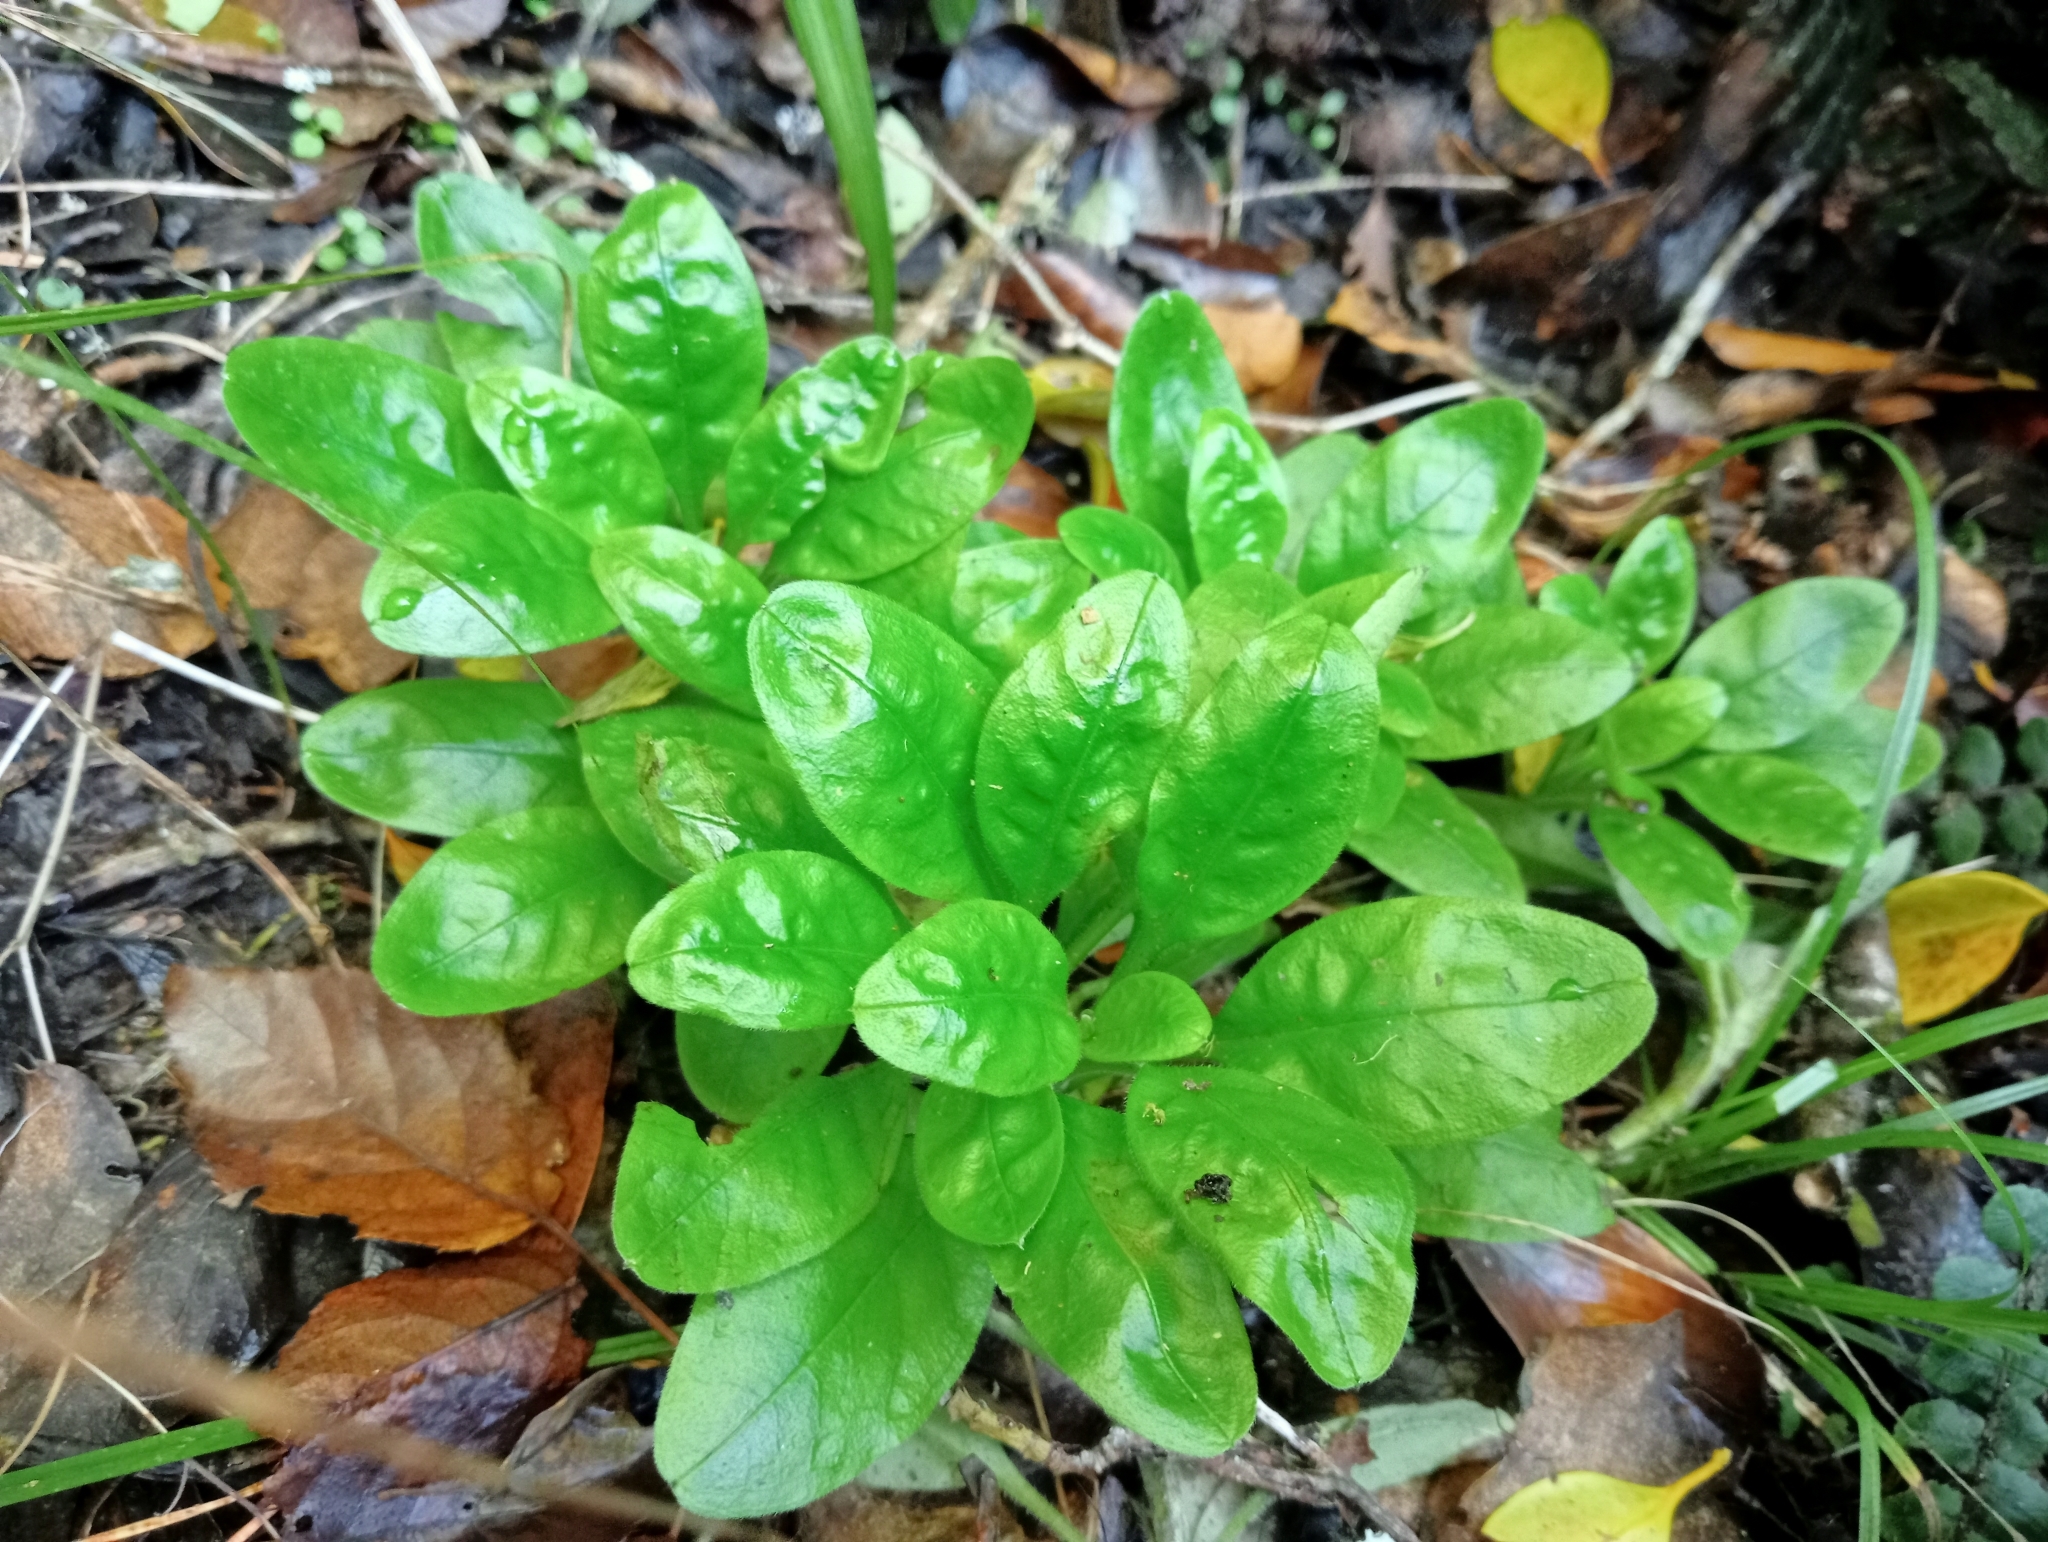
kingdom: Plantae
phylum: Tracheophyta
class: Magnoliopsida
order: Boraginales
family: Boraginaceae
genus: Myosotis
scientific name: Myosotis sylvatica
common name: Wood forget-me-not
